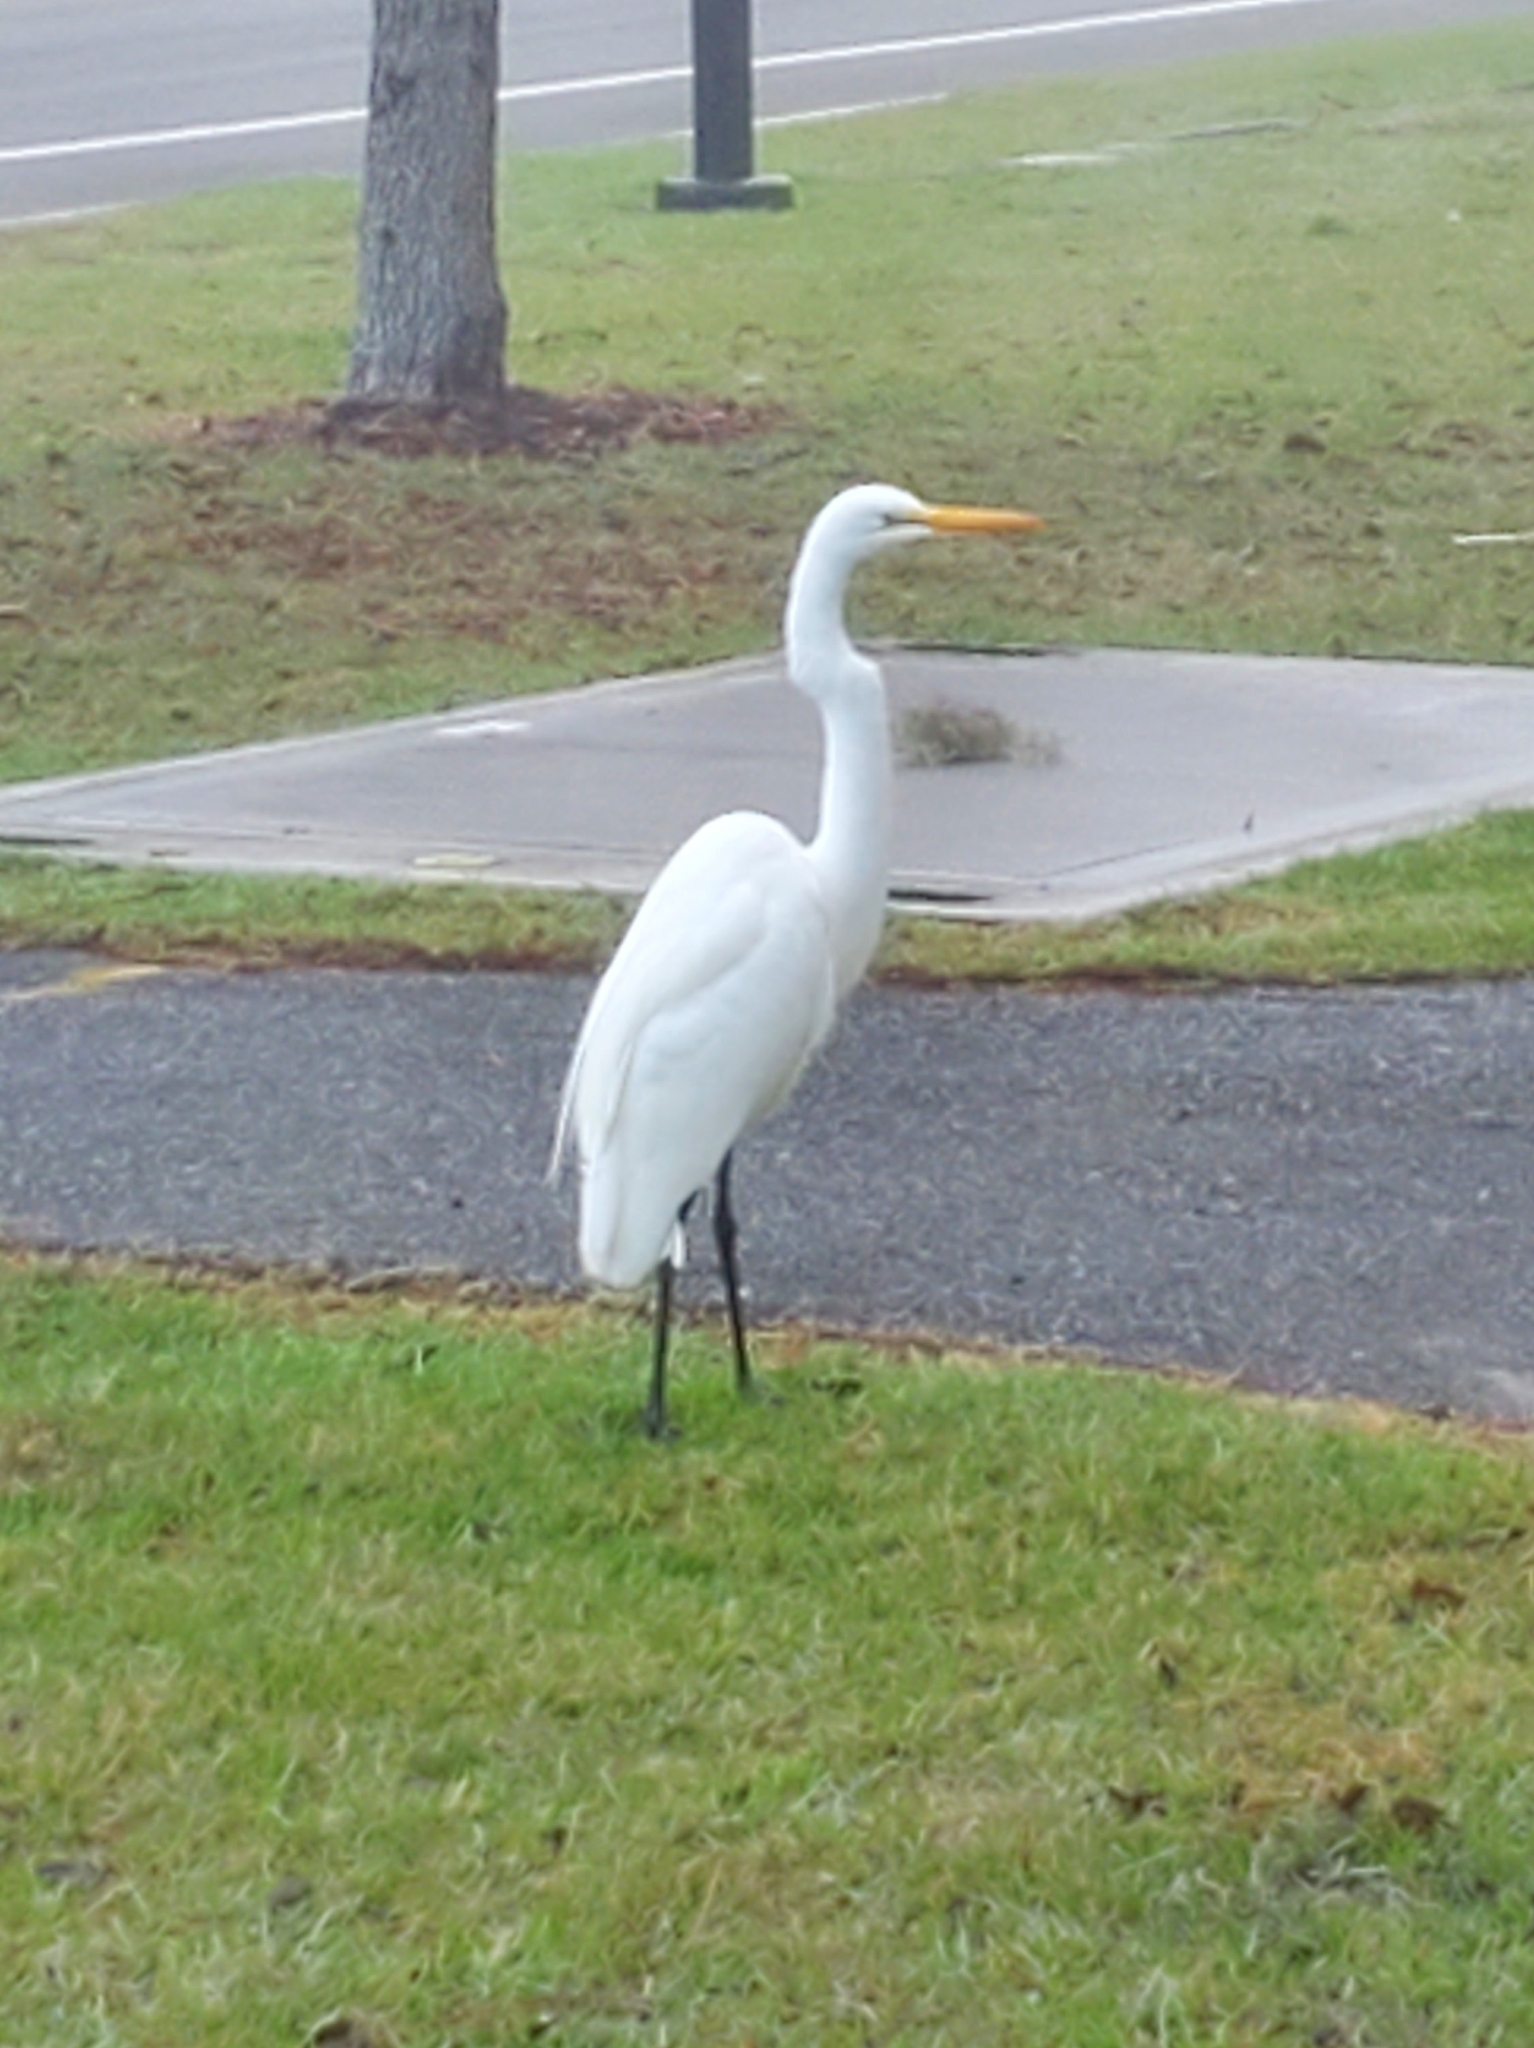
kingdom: Animalia
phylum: Chordata
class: Aves
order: Pelecaniformes
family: Ardeidae
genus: Ardea
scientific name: Ardea alba
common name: Great egret
